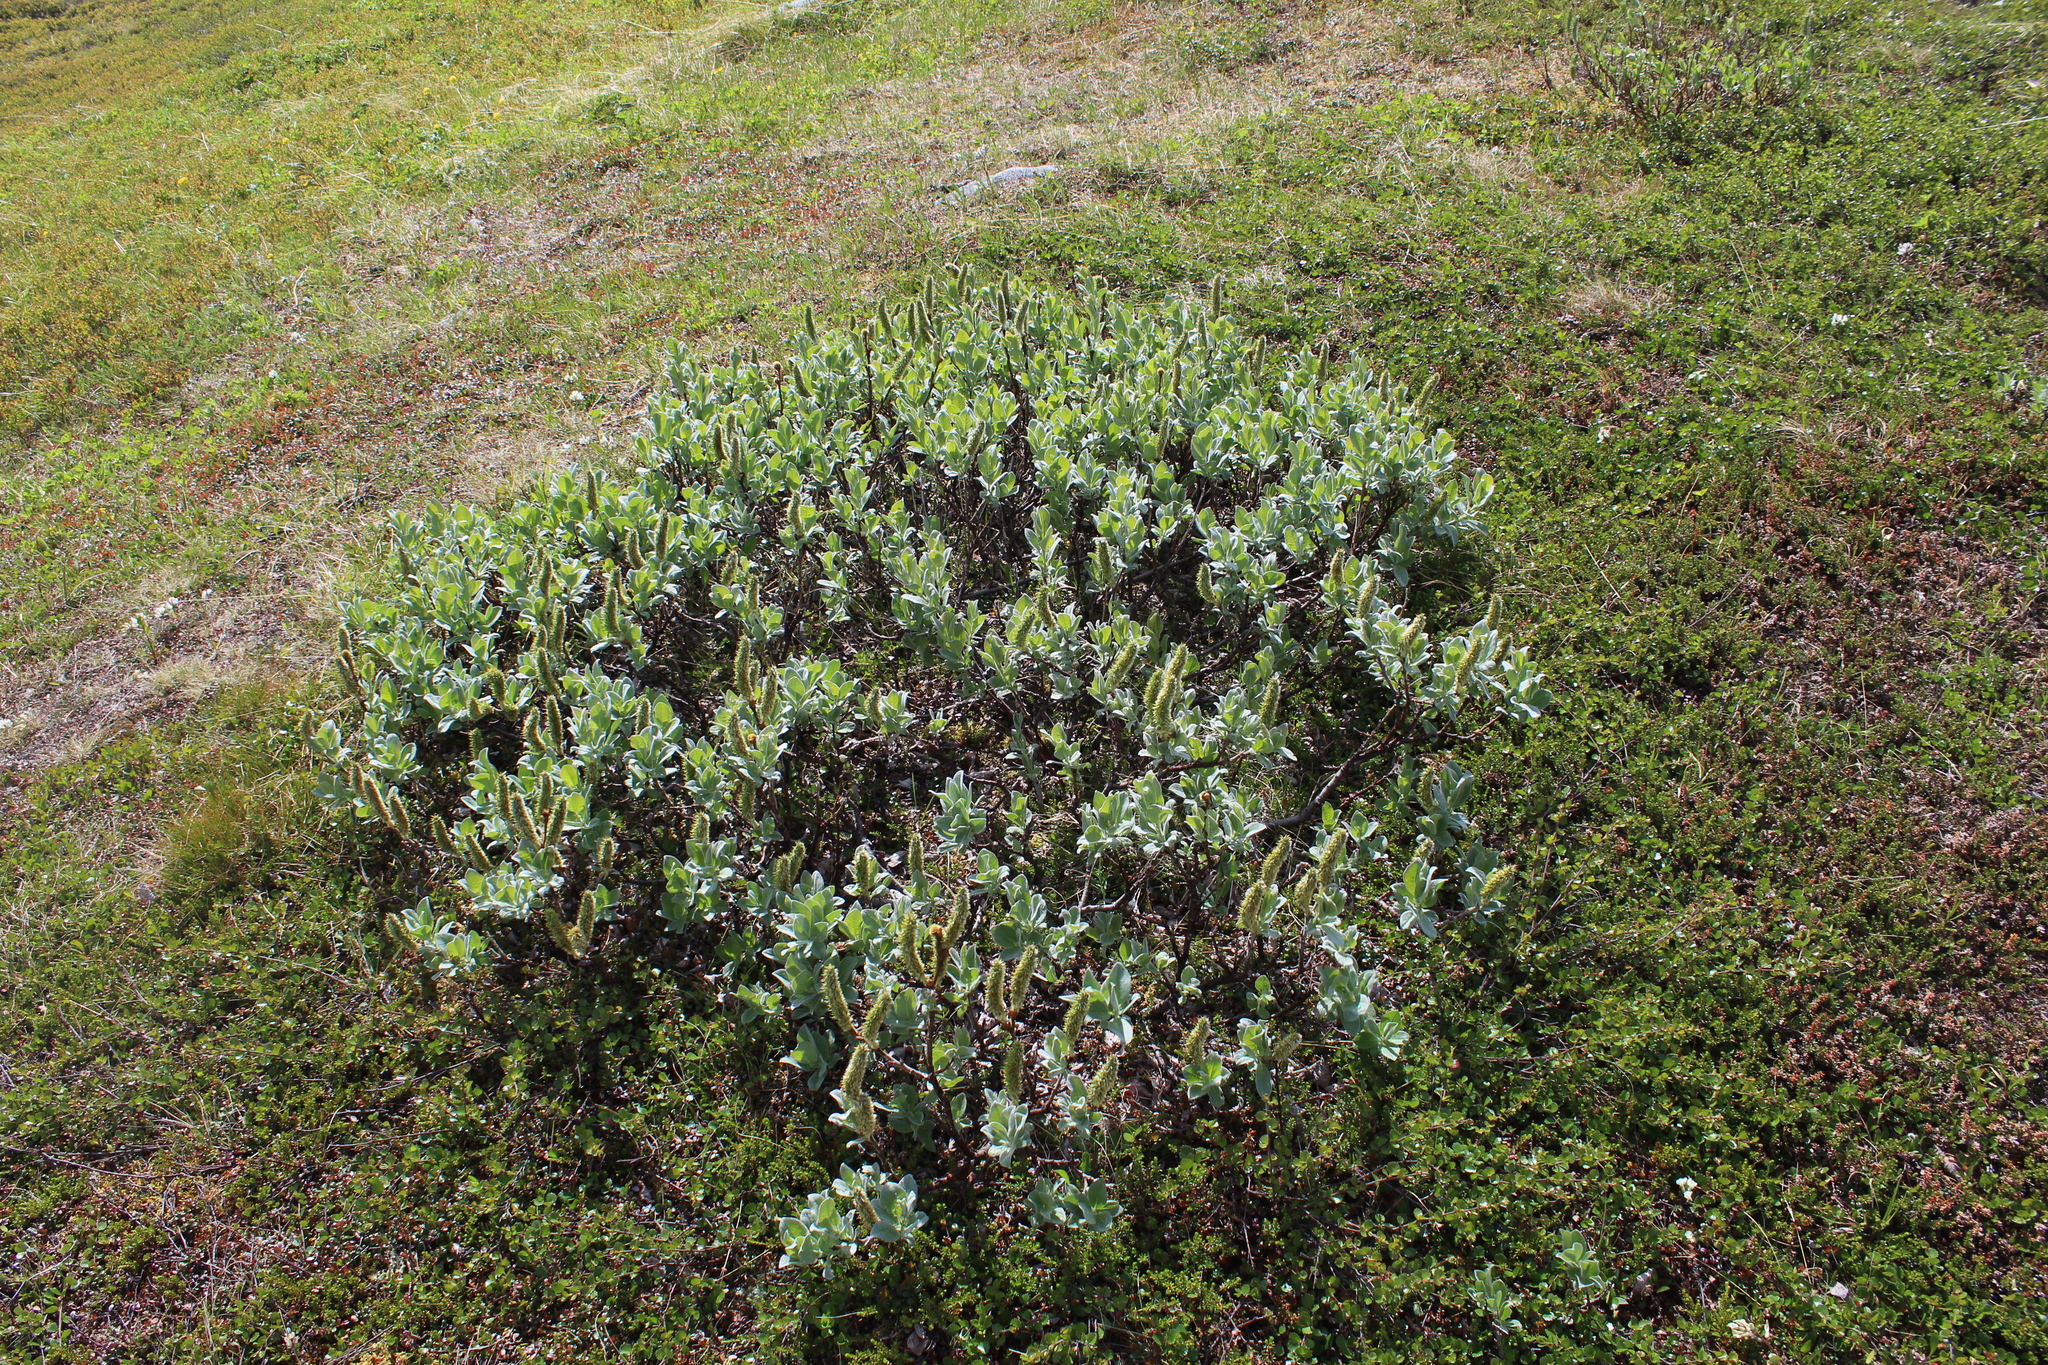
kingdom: Plantae
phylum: Tracheophyta
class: Magnoliopsida
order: Malpighiales
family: Salicaceae
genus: Salix
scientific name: Salix lanata
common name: Woolly willow
